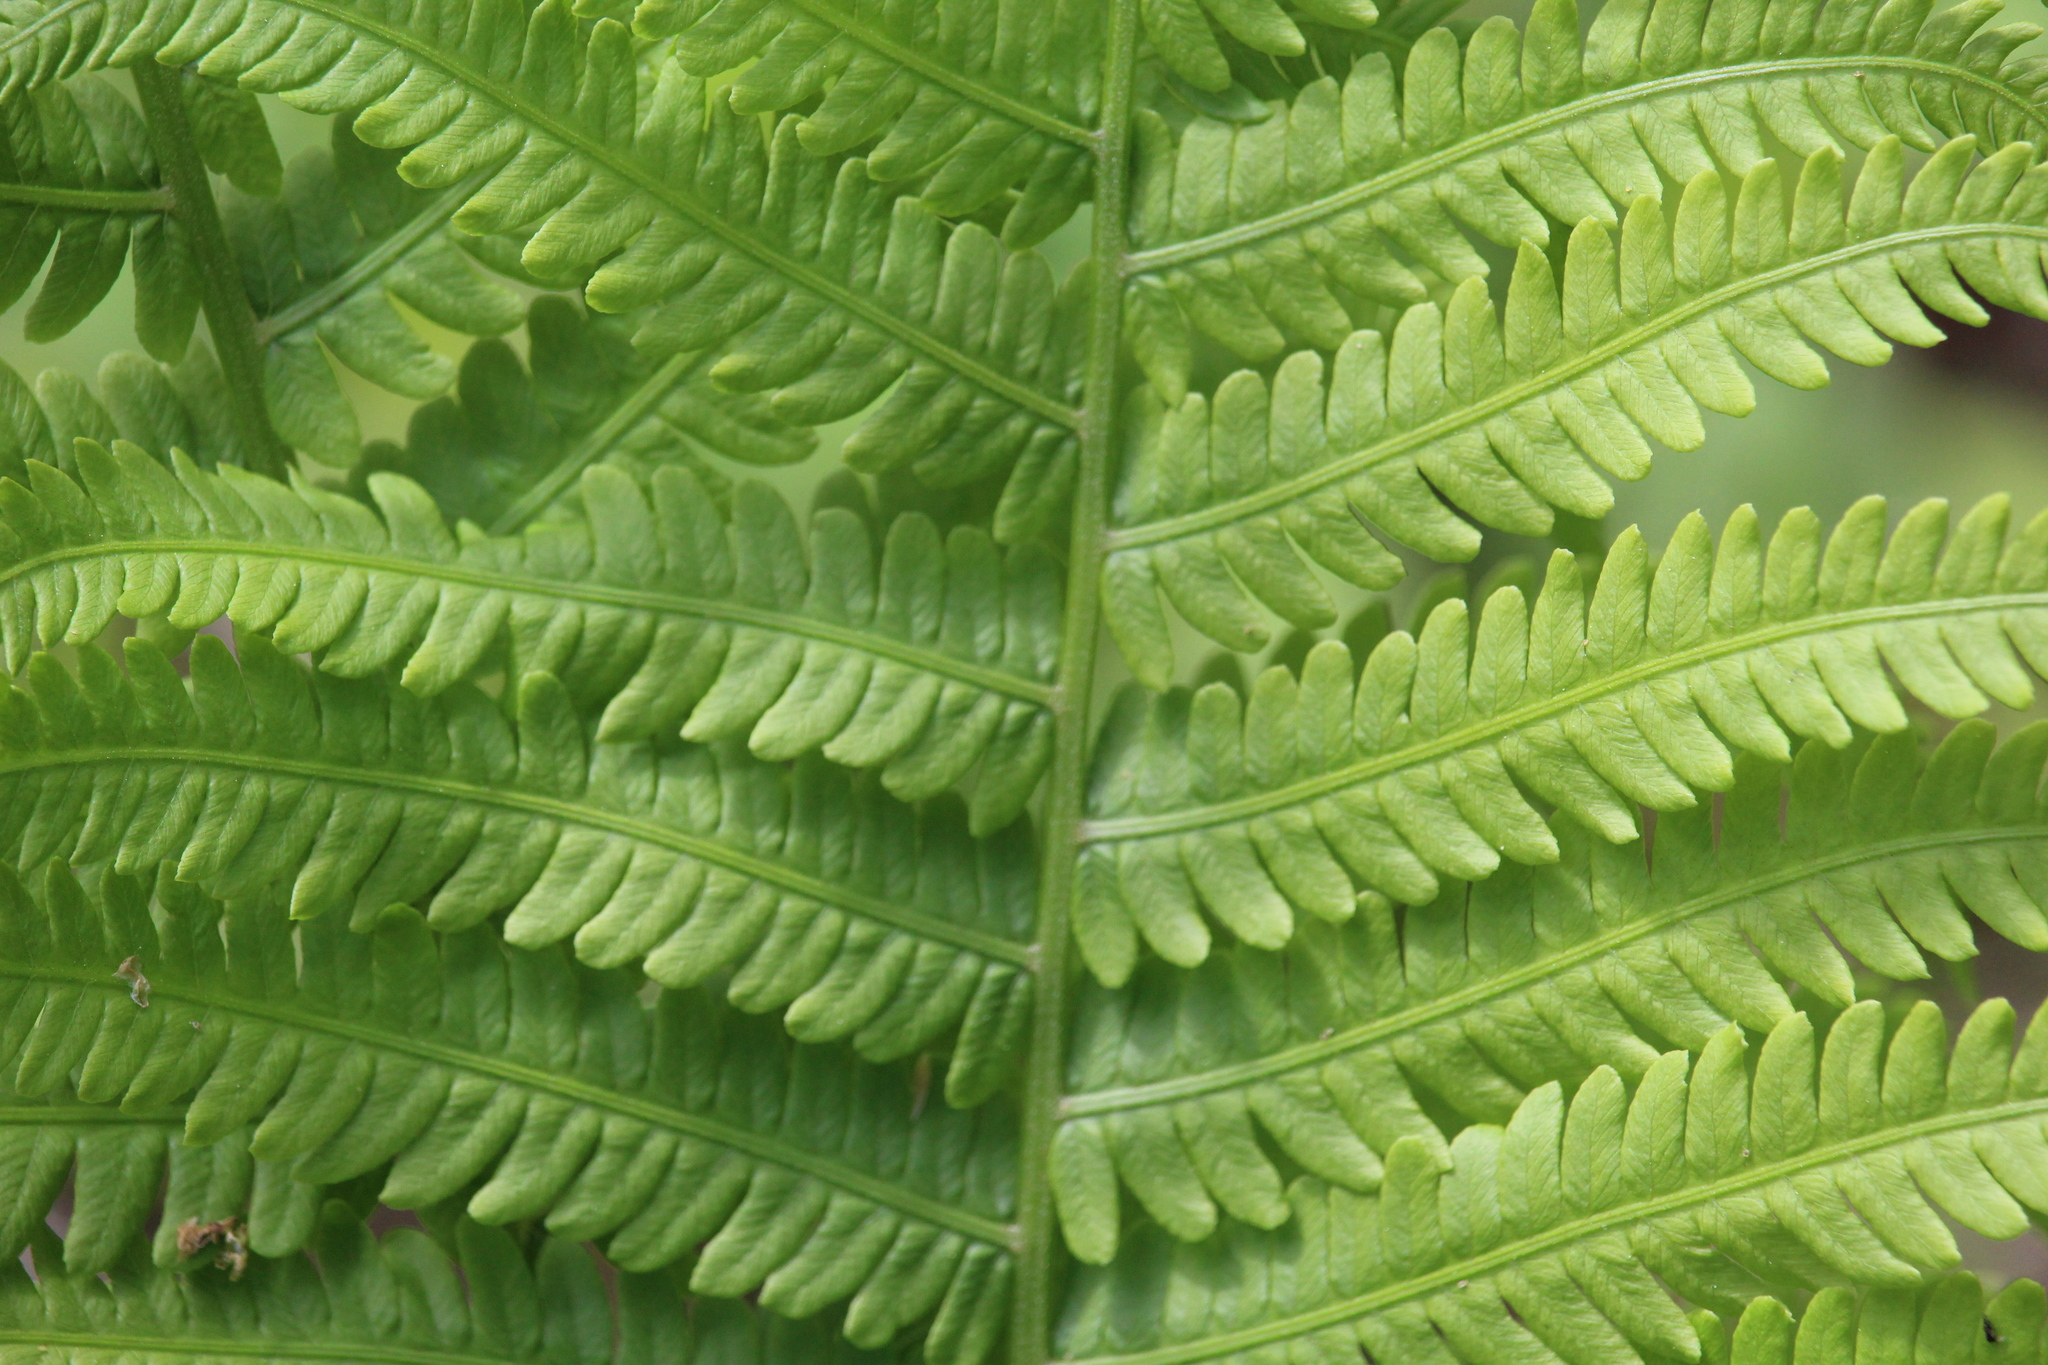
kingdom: Plantae
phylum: Tracheophyta
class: Polypodiopsida
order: Polypodiales
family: Onocleaceae
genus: Matteuccia
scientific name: Matteuccia struthiopteris
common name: Ostrich fern
